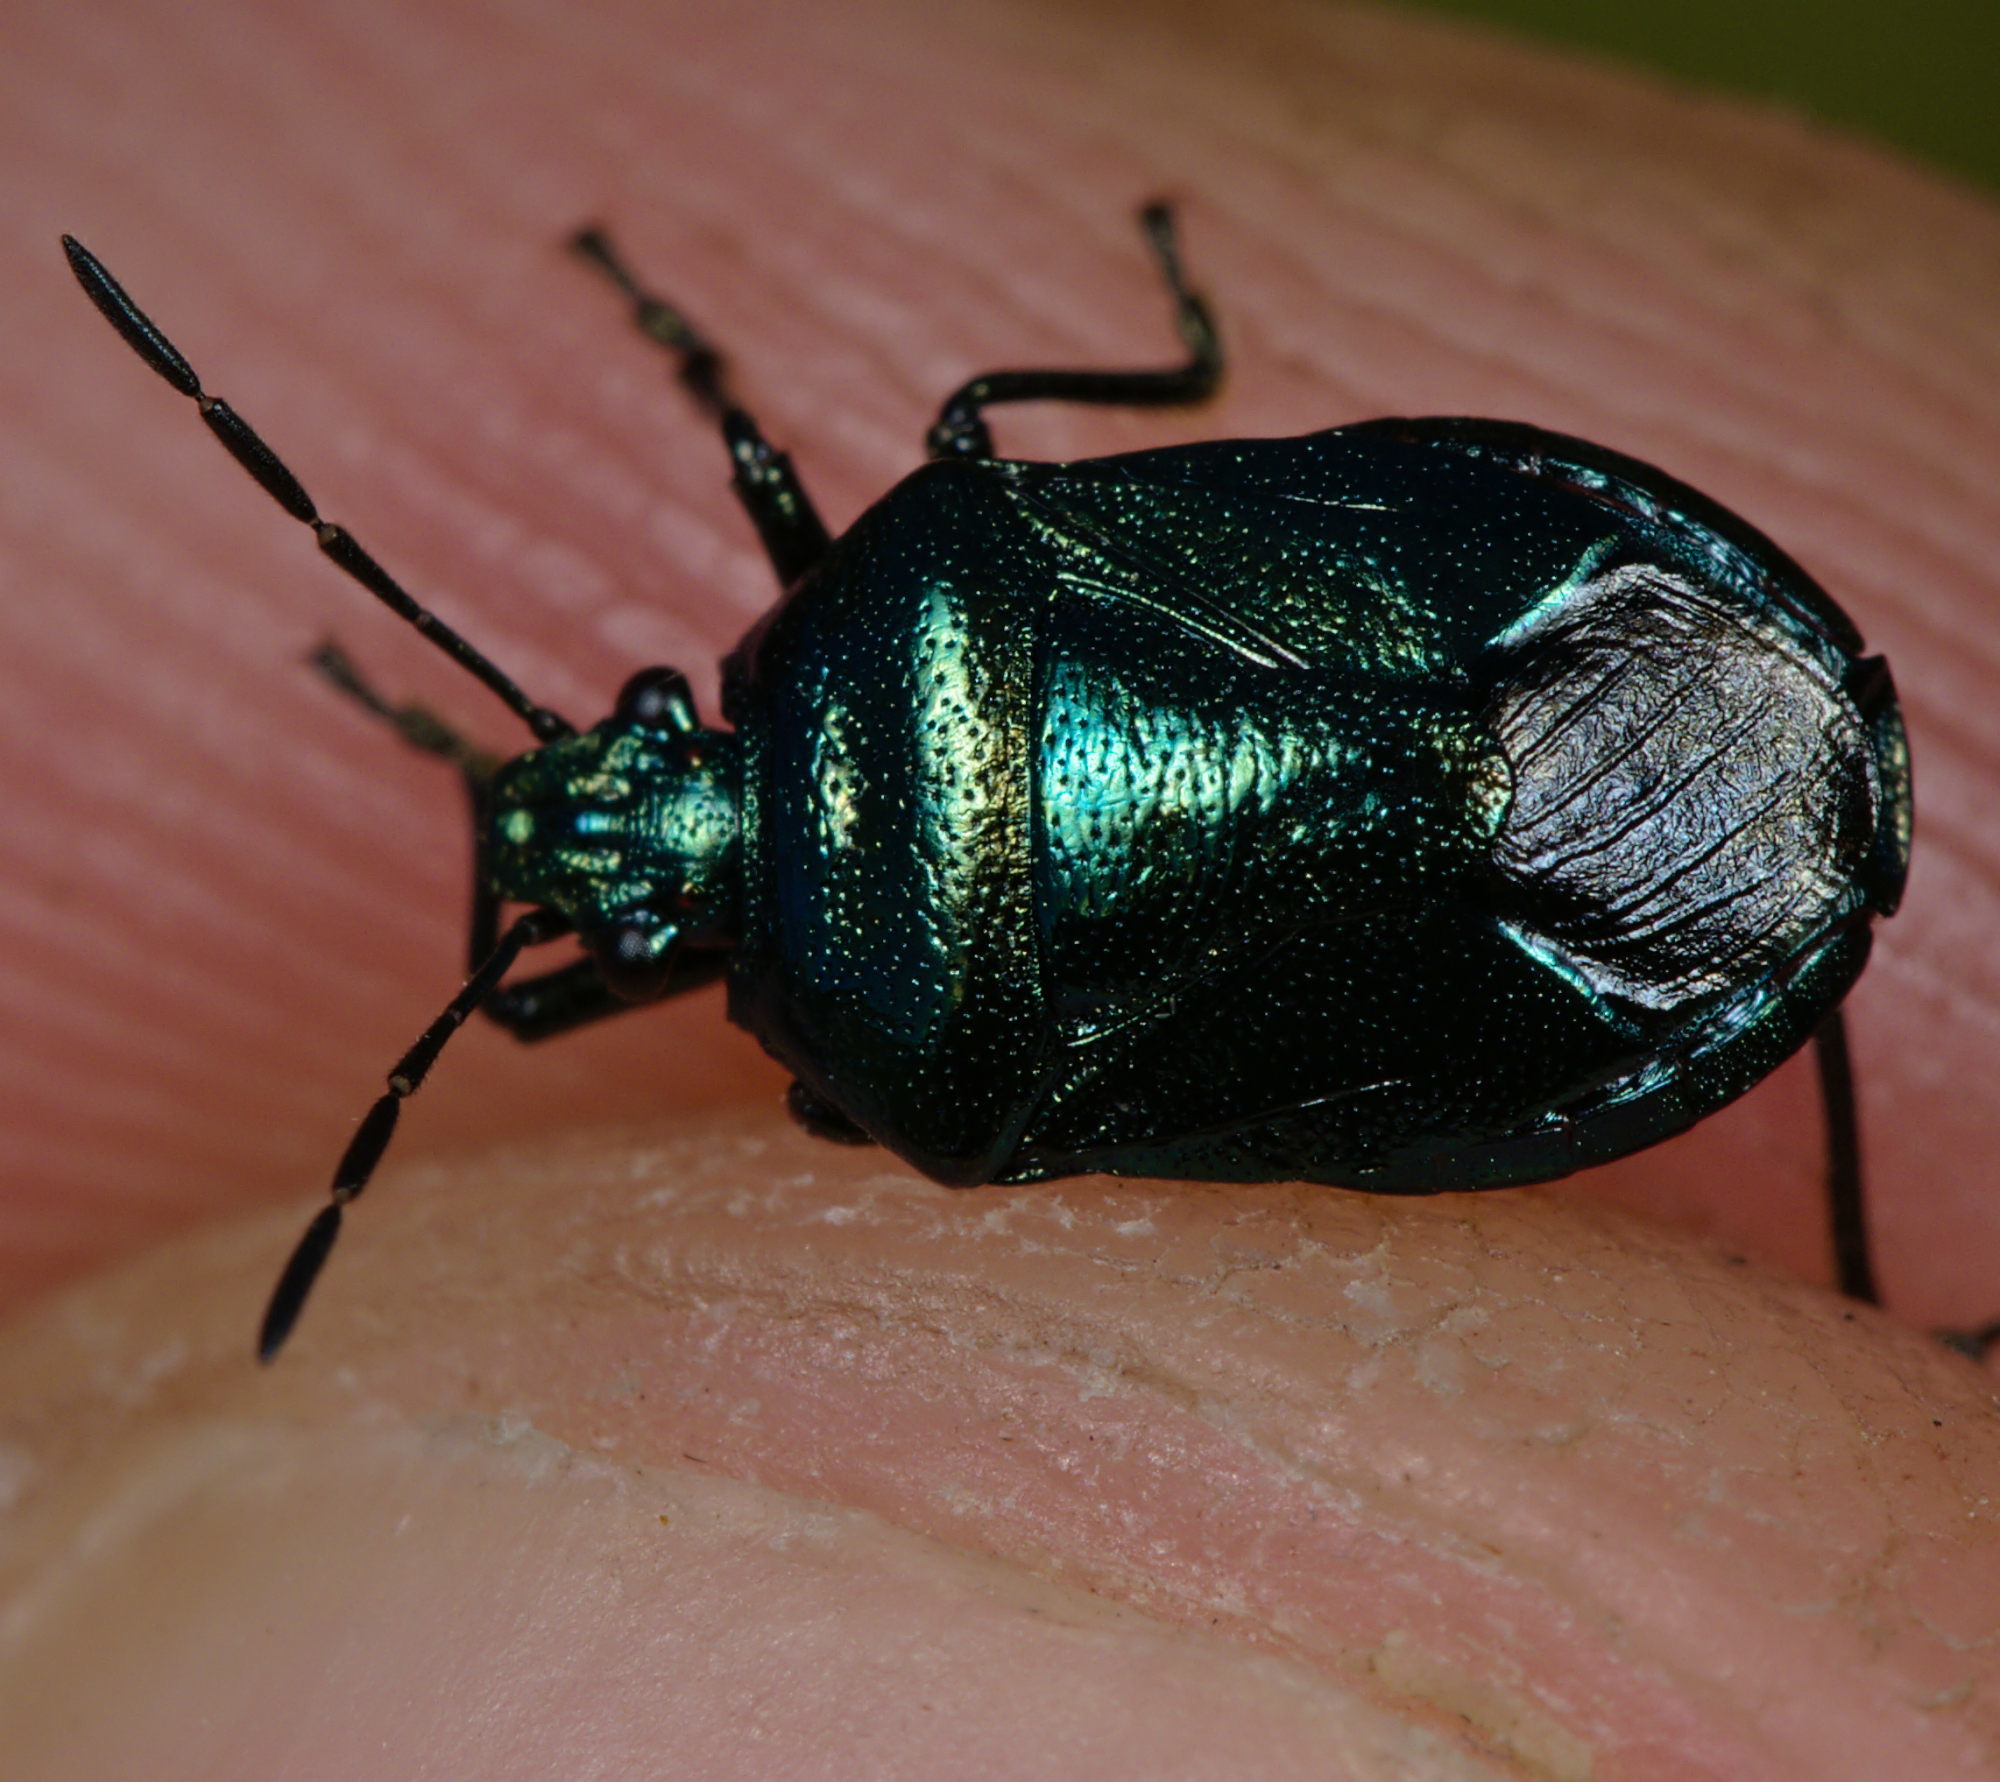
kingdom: Animalia
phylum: Arthropoda
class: Insecta
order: Hemiptera
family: Pentatomidae
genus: Zicrona
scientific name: Zicrona caerulea
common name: Blue shieldbug
